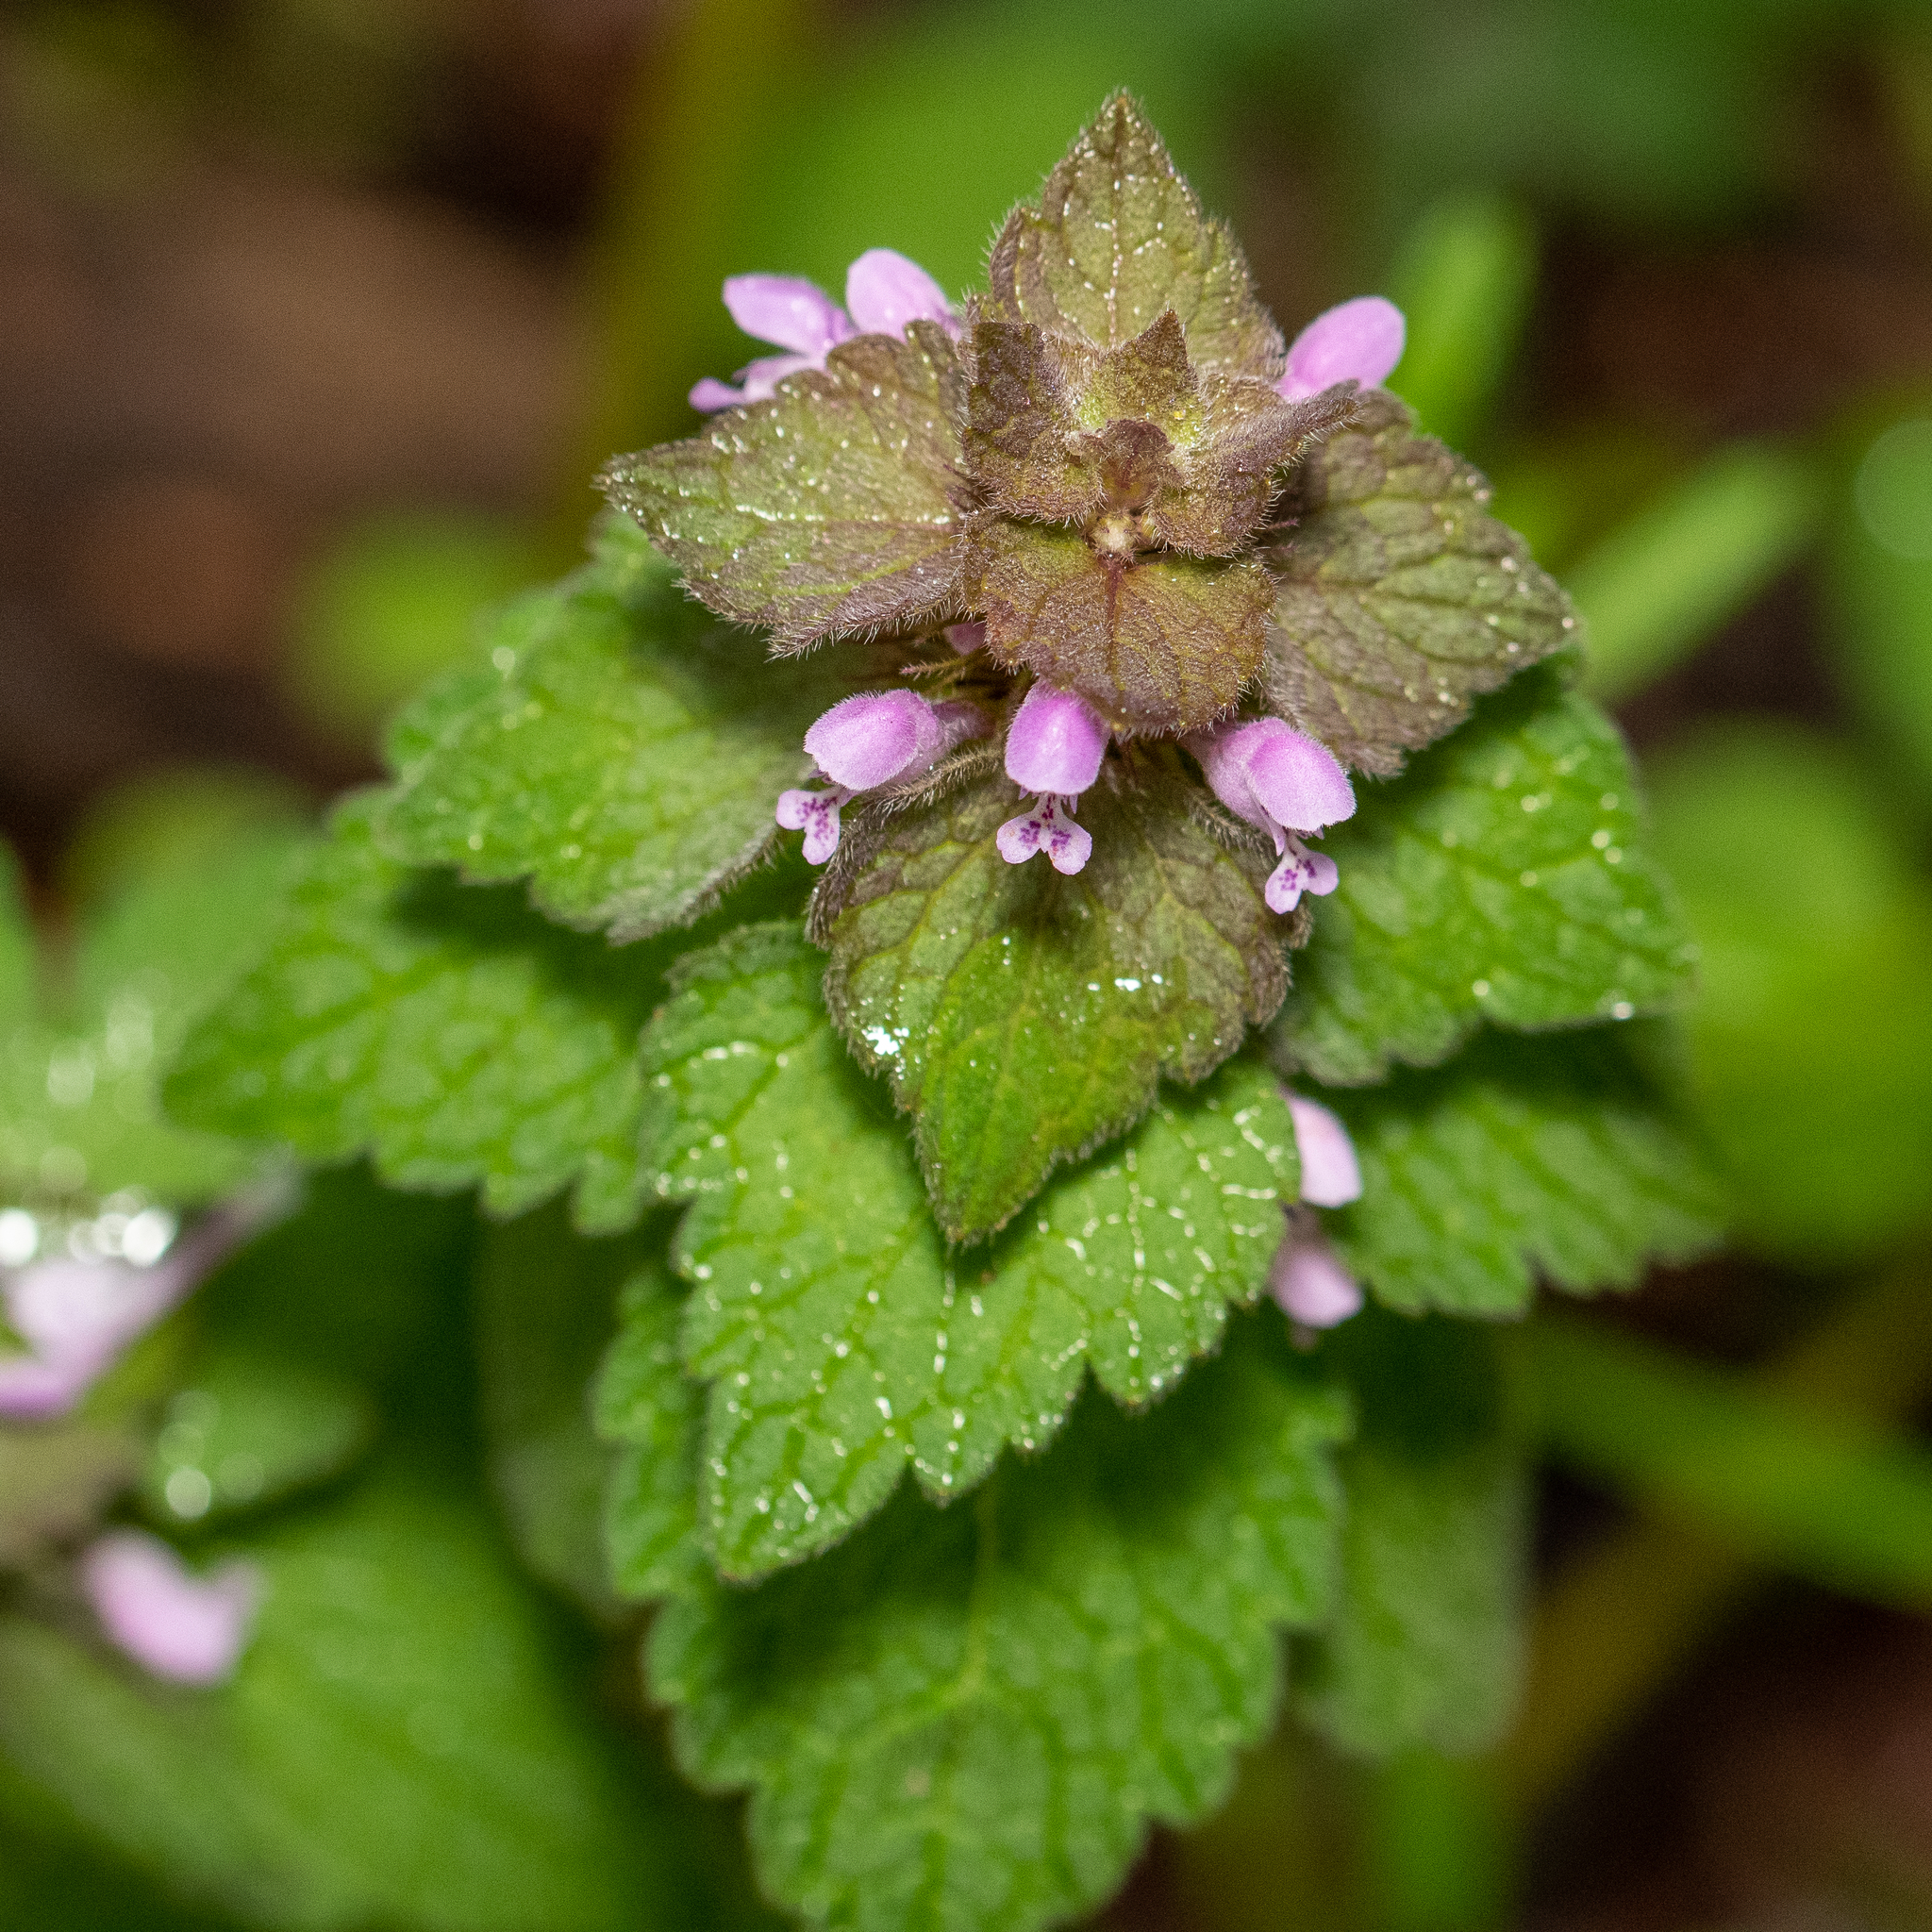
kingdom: Plantae
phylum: Tracheophyta
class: Magnoliopsida
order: Lamiales
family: Lamiaceae
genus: Lamium
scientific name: Lamium purpureum
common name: Red dead-nettle
